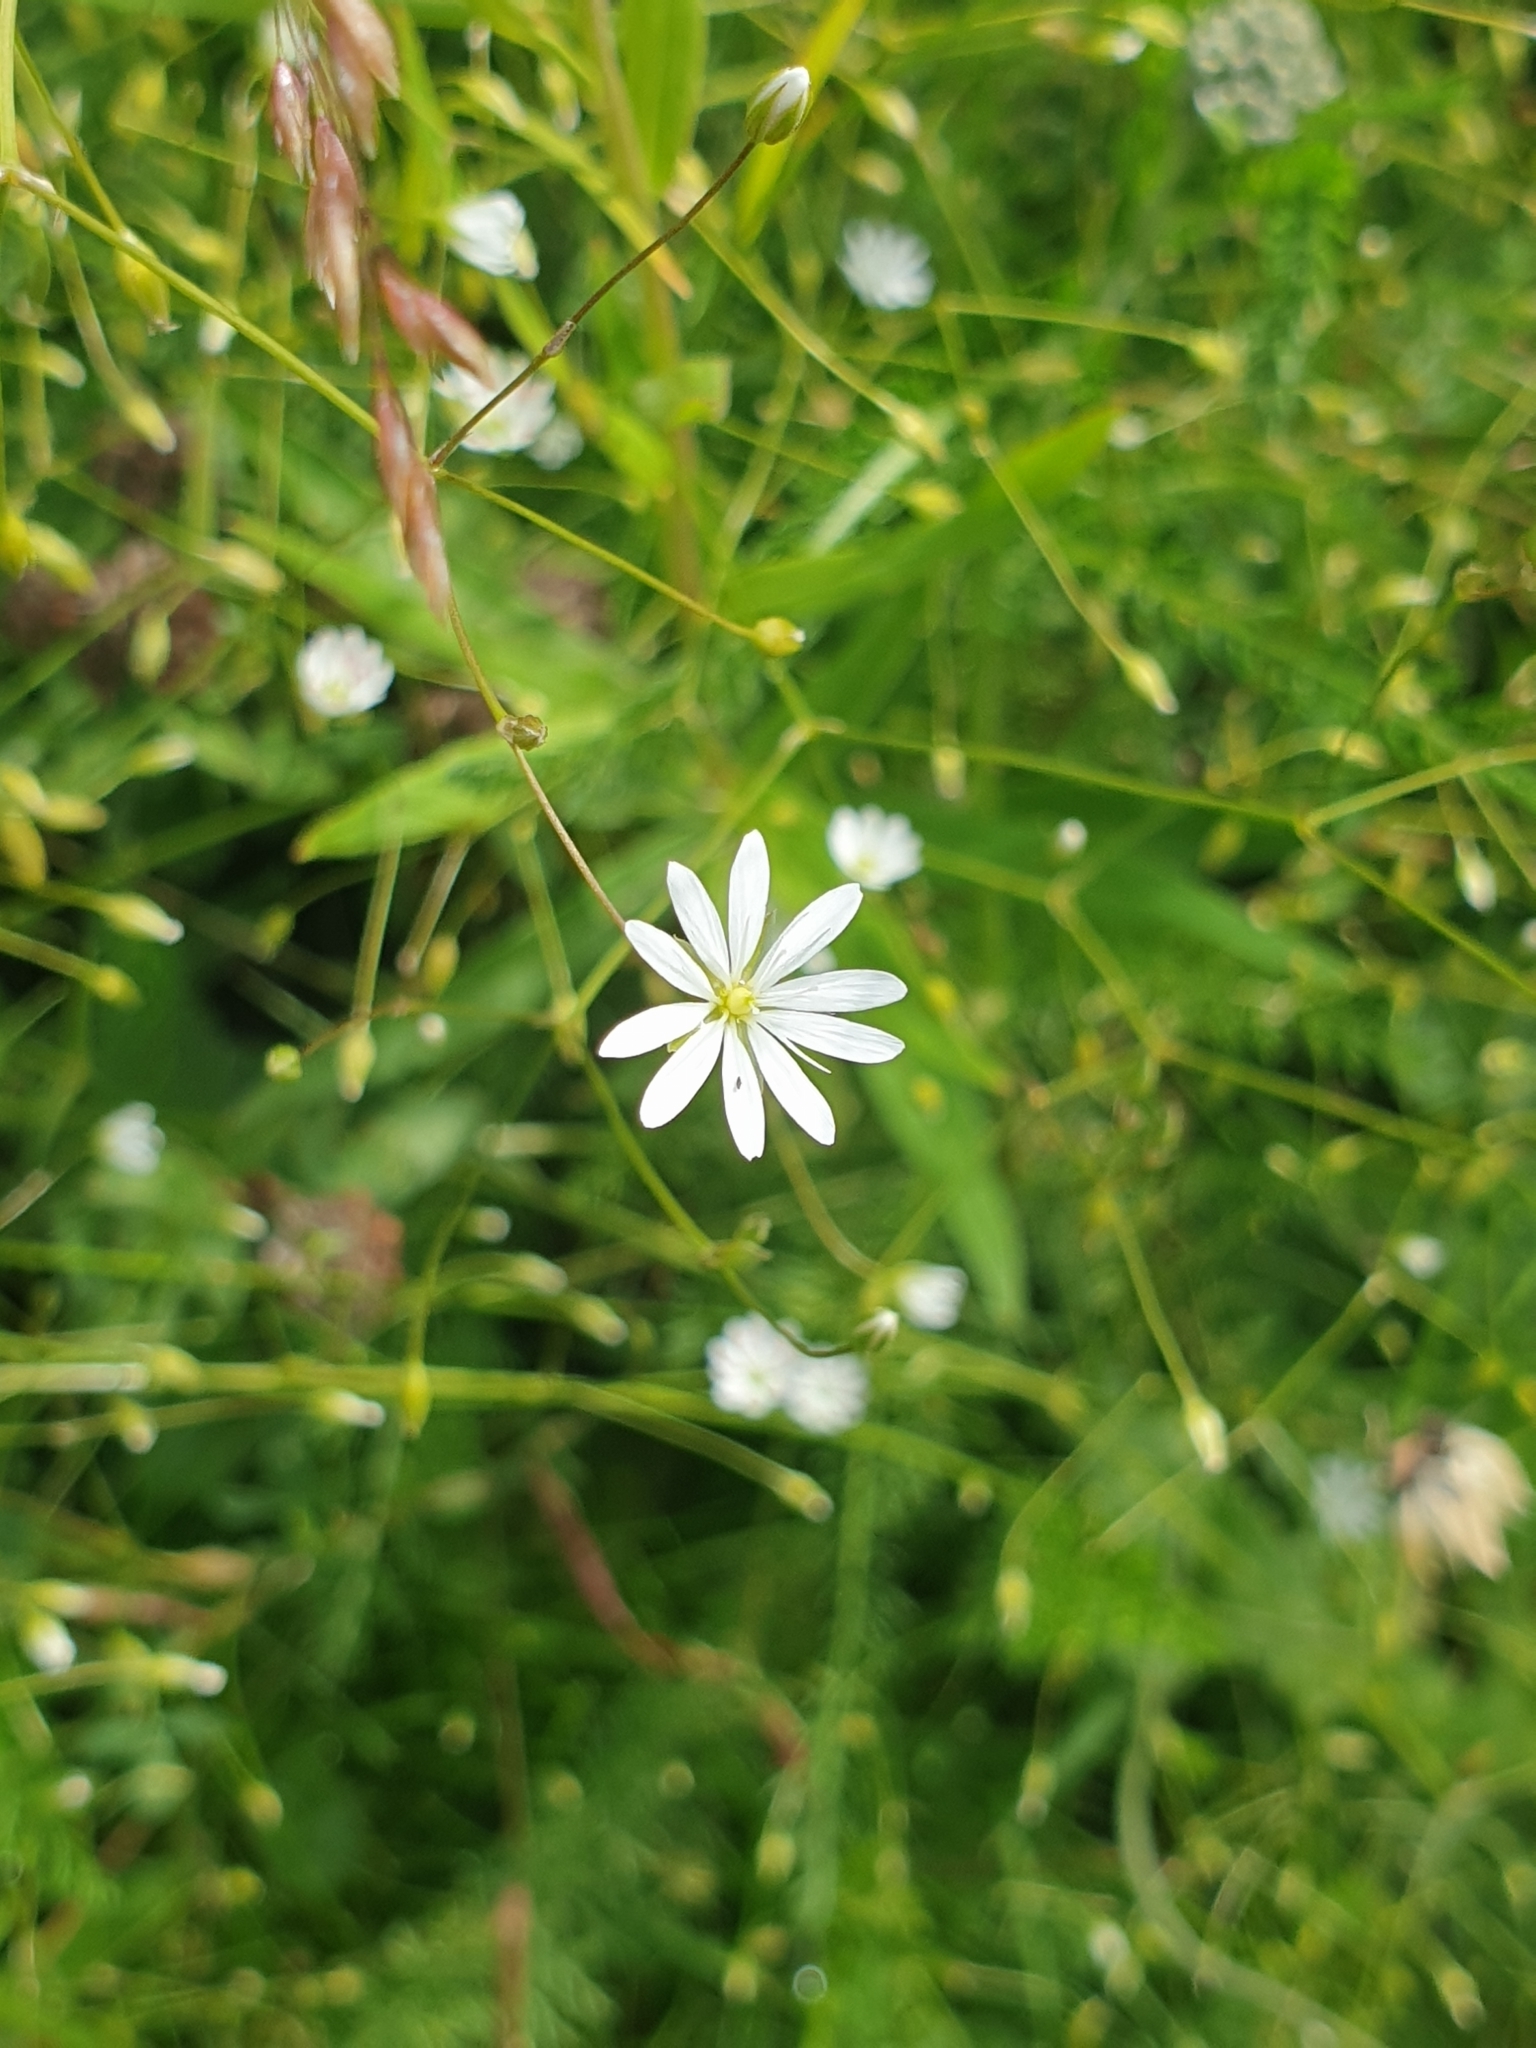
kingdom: Plantae
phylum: Tracheophyta
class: Magnoliopsida
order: Caryophyllales
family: Caryophyllaceae
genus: Stellaria
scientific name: Stellaria graminea
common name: Grass-like starwort
